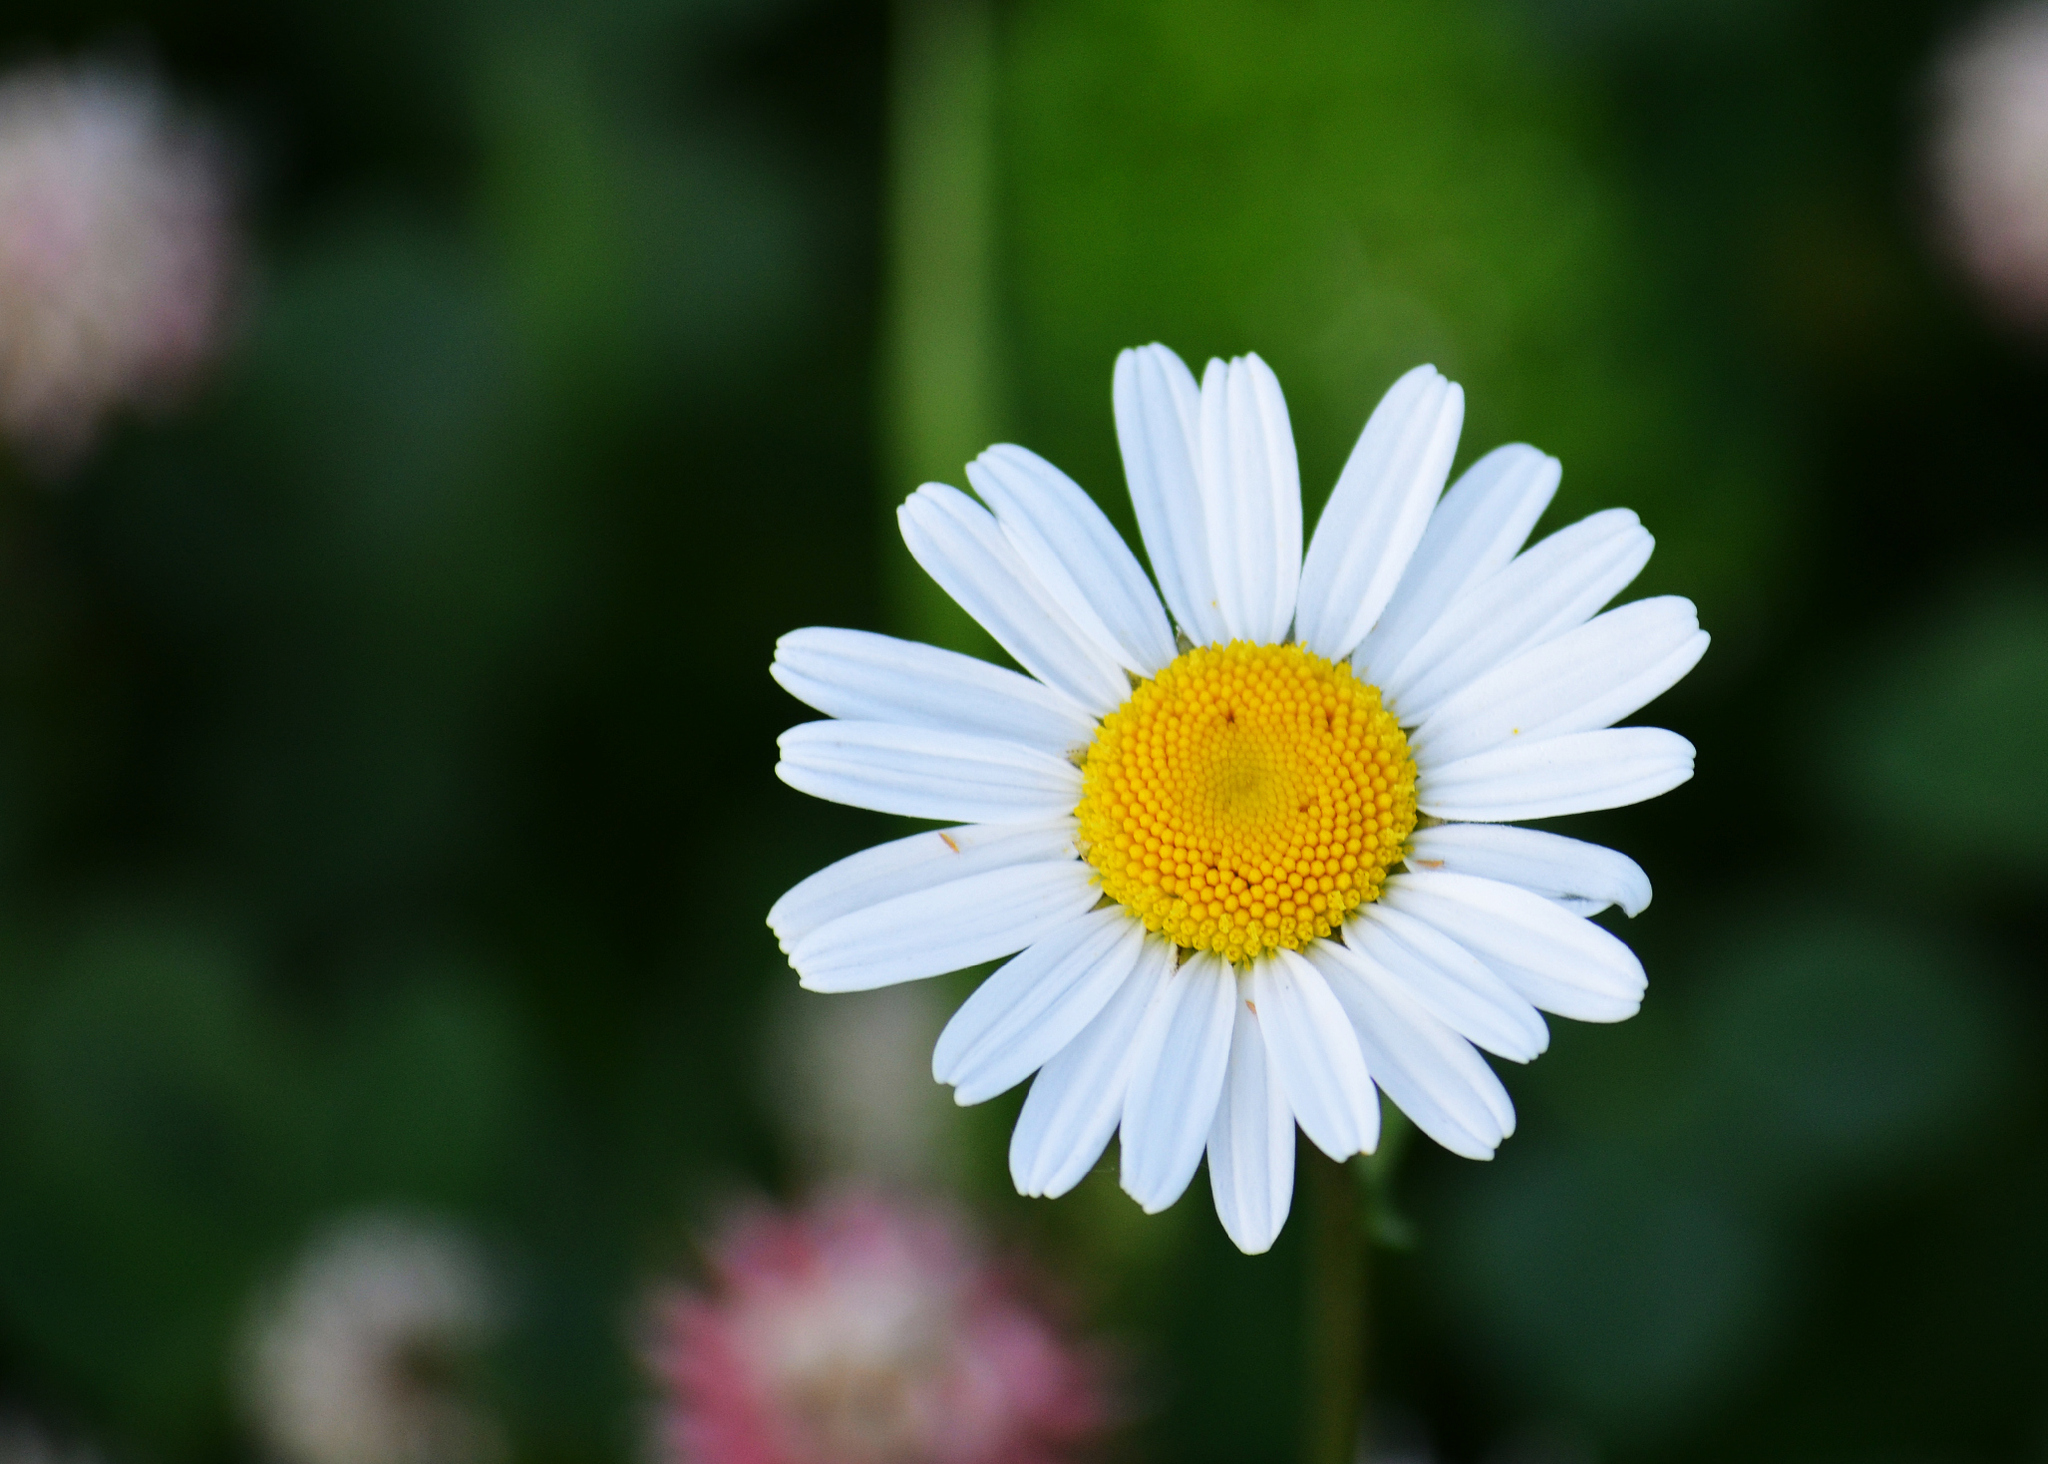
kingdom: Plantae
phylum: Tracheophyta
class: Magnoliopsida
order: Asterales
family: Asteraceae
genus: Leucanthemum
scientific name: Leucanthemum vulgare
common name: Oxeye daisy
